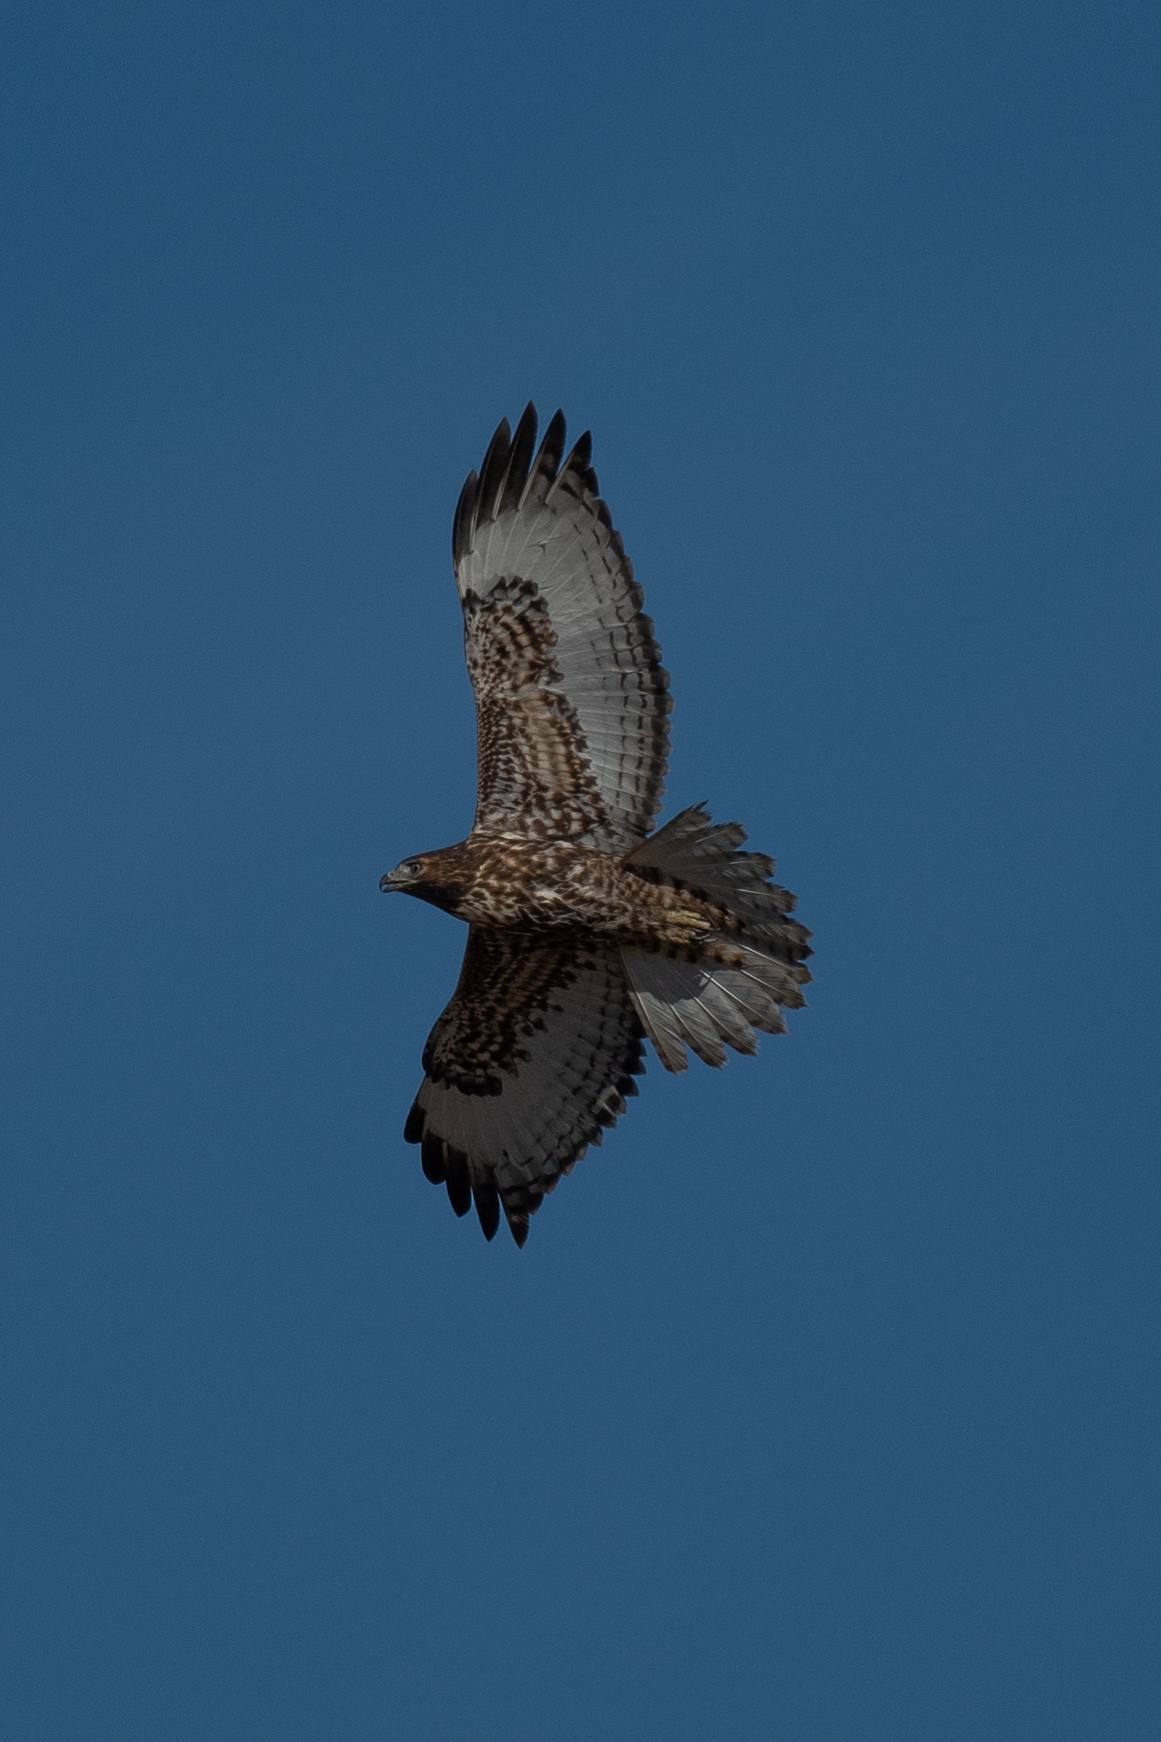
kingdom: Animalia
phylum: Chordata
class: Aves
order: Accipitriformes
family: Accipitridae
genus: Buteo
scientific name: Buteo jamaicensis
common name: Red-tailed hawk
